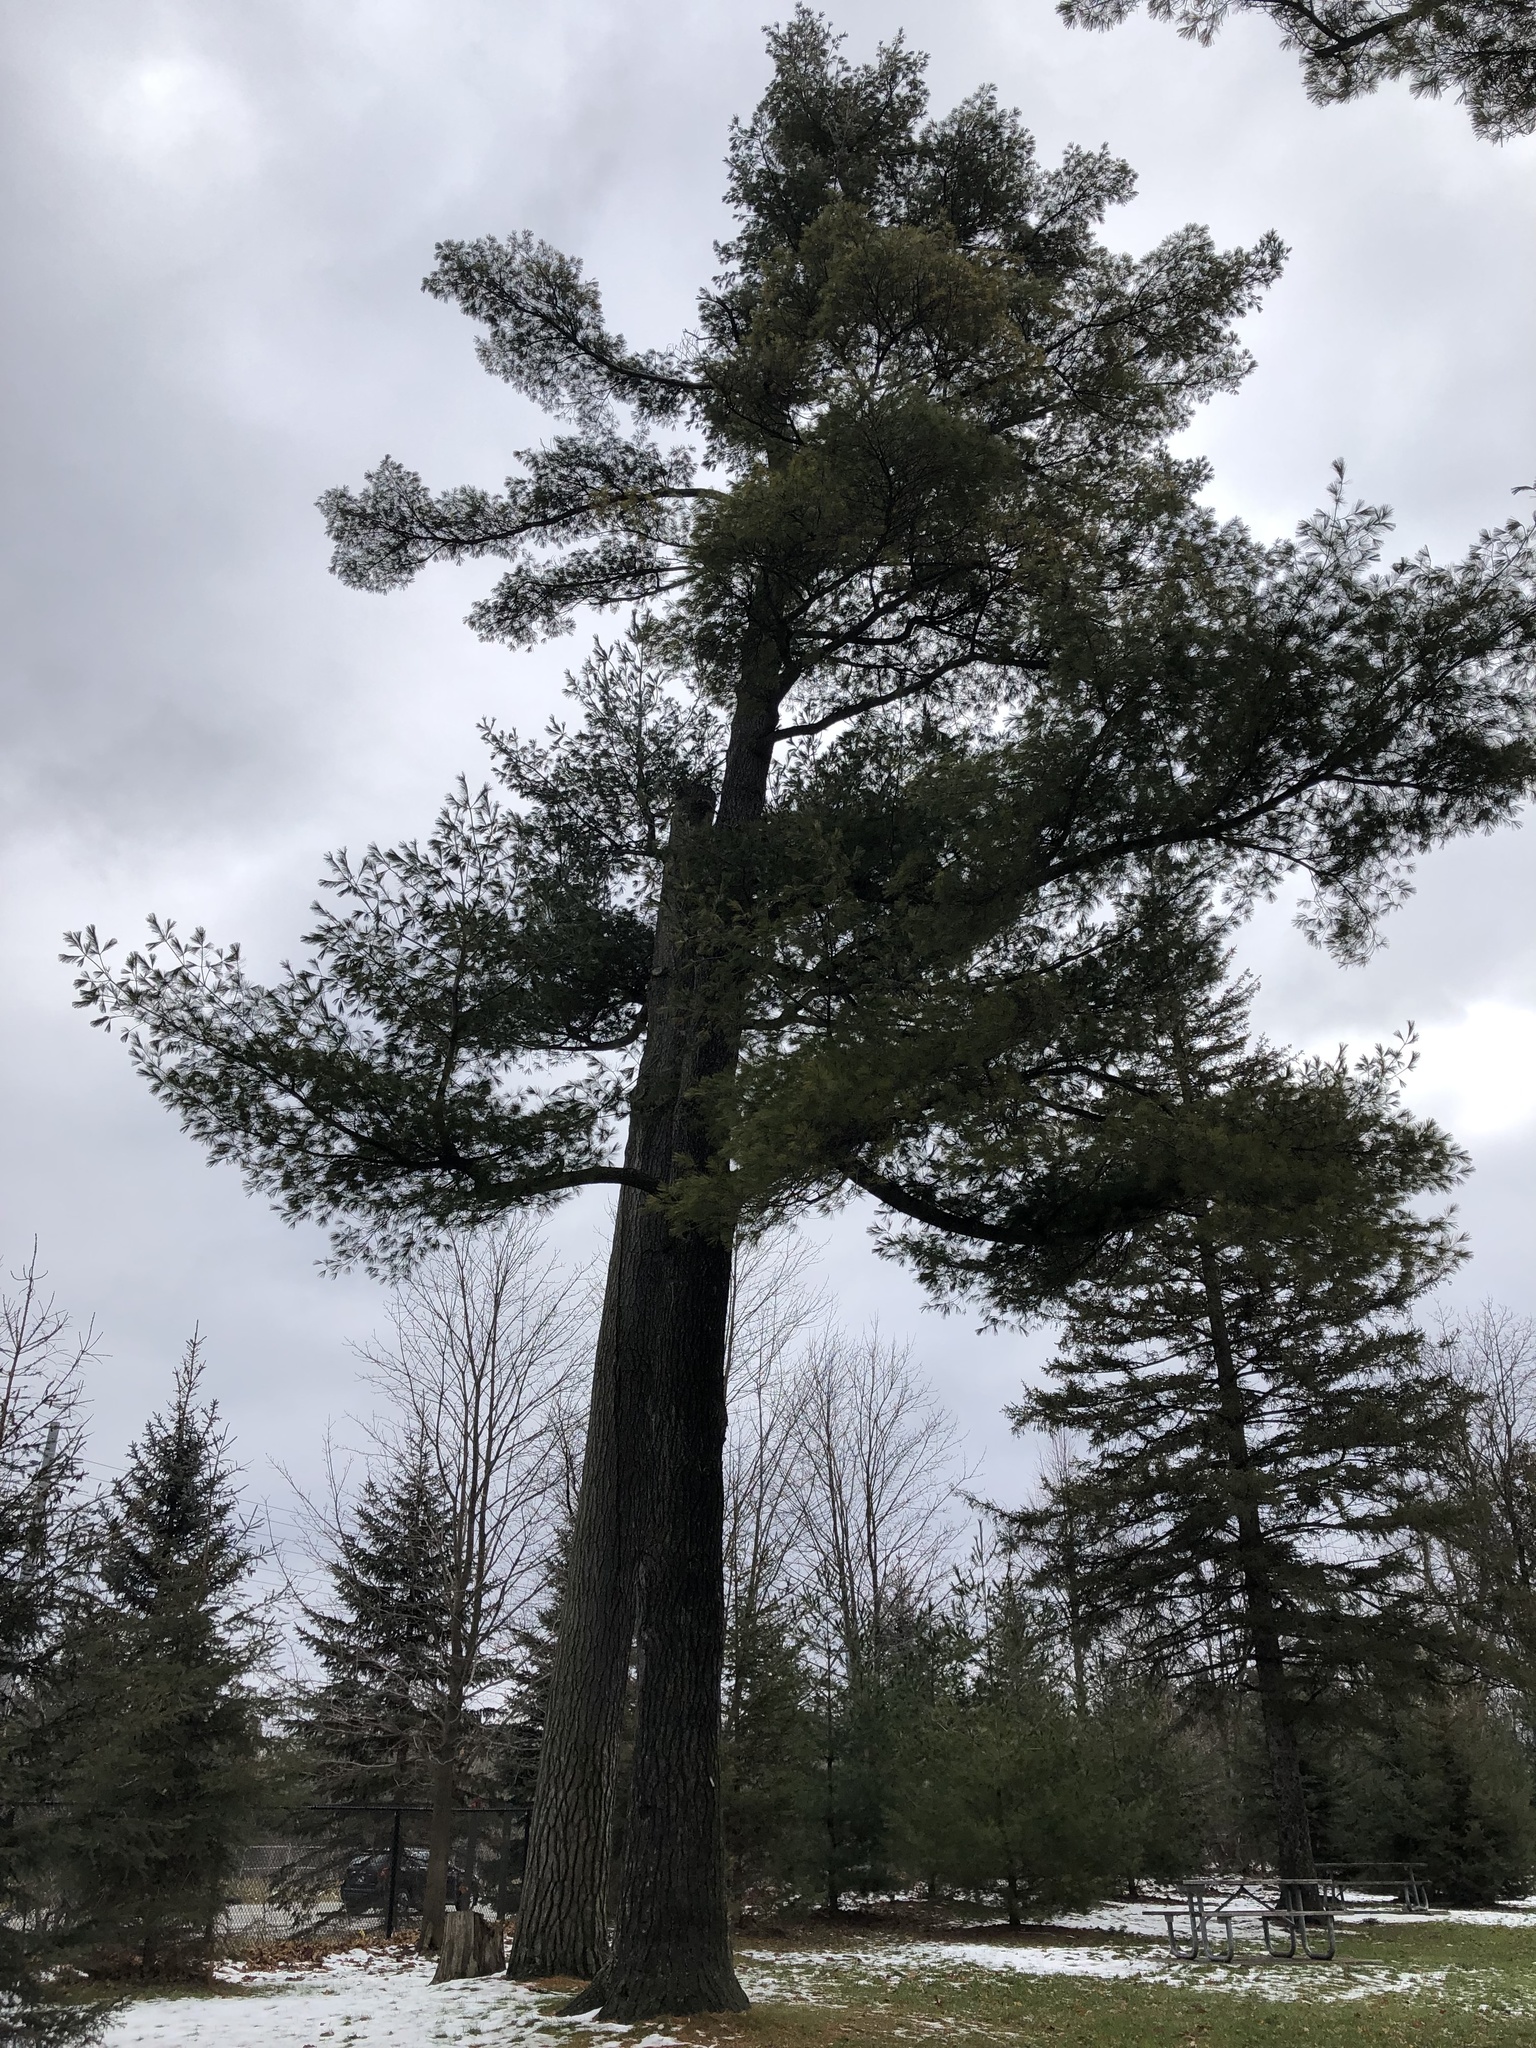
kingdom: Plantae
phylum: Tracheophyta
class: Pinopsida
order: Pinales
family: Pinaceae
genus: Pinus
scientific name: Pinus strobus
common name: Weymouth pine
